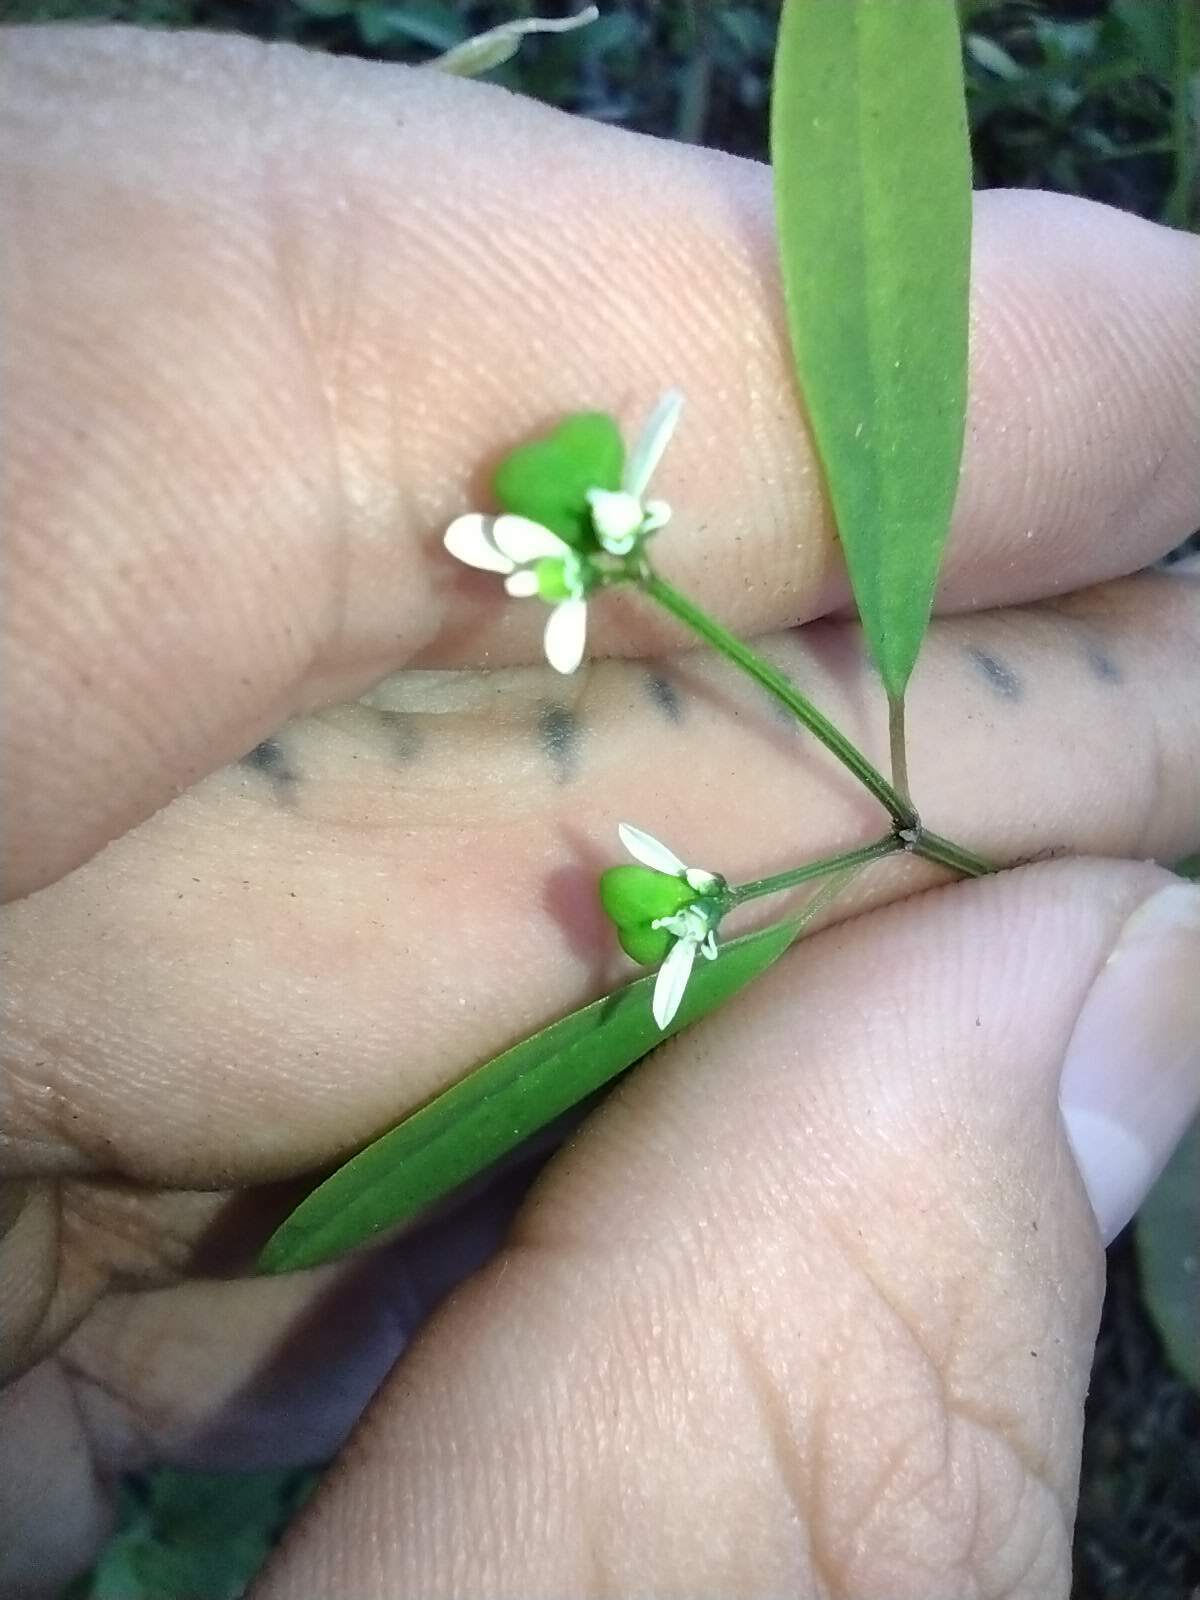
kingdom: Plantae
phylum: Tracheophyta
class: Magnoliopsida
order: Malpighiales
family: Euphorbiaceae
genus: Euphorbia
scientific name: Euphorbia graminea
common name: Grassleaf spurge
